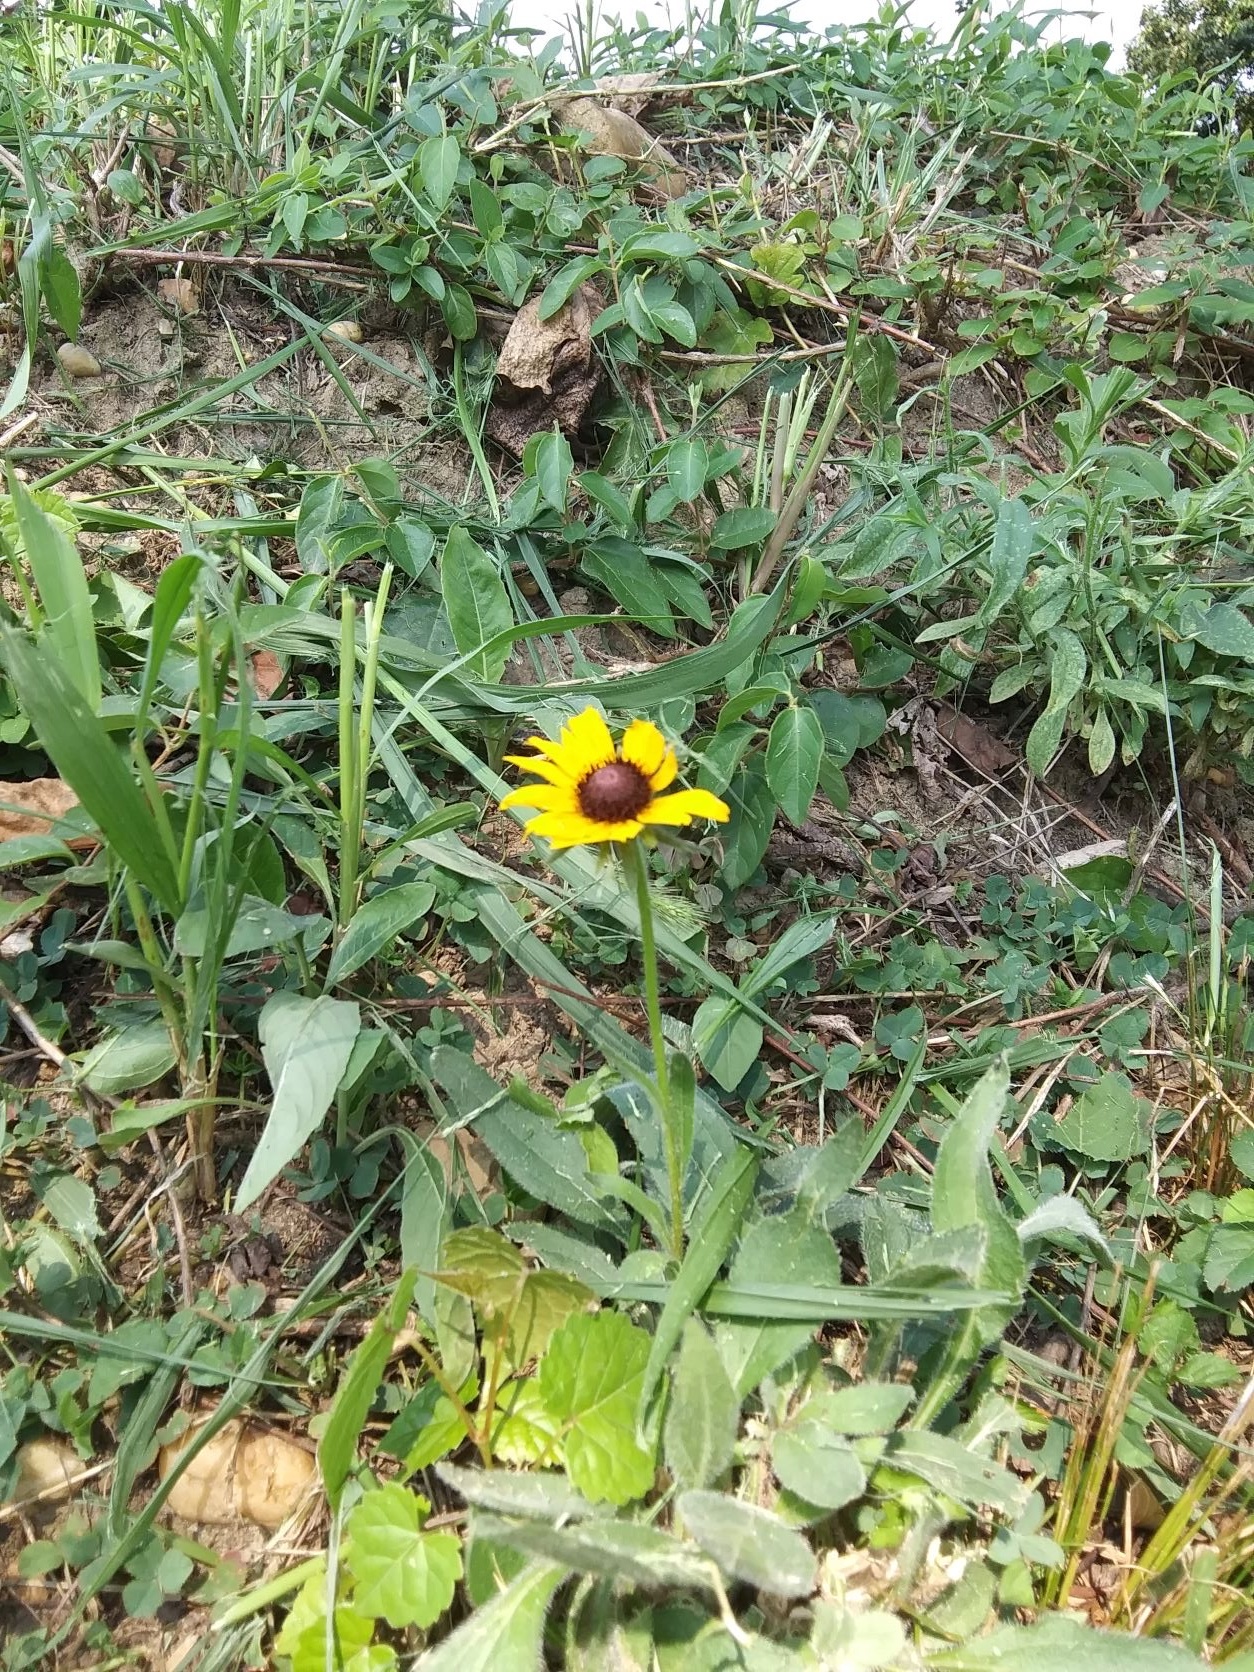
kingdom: Plantae
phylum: Tracheophyta
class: Magnoliopsida
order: Asterales
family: Asteraceae
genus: Rudbeckia
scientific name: Rudbeckia hirta
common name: Black-eyed-susan
